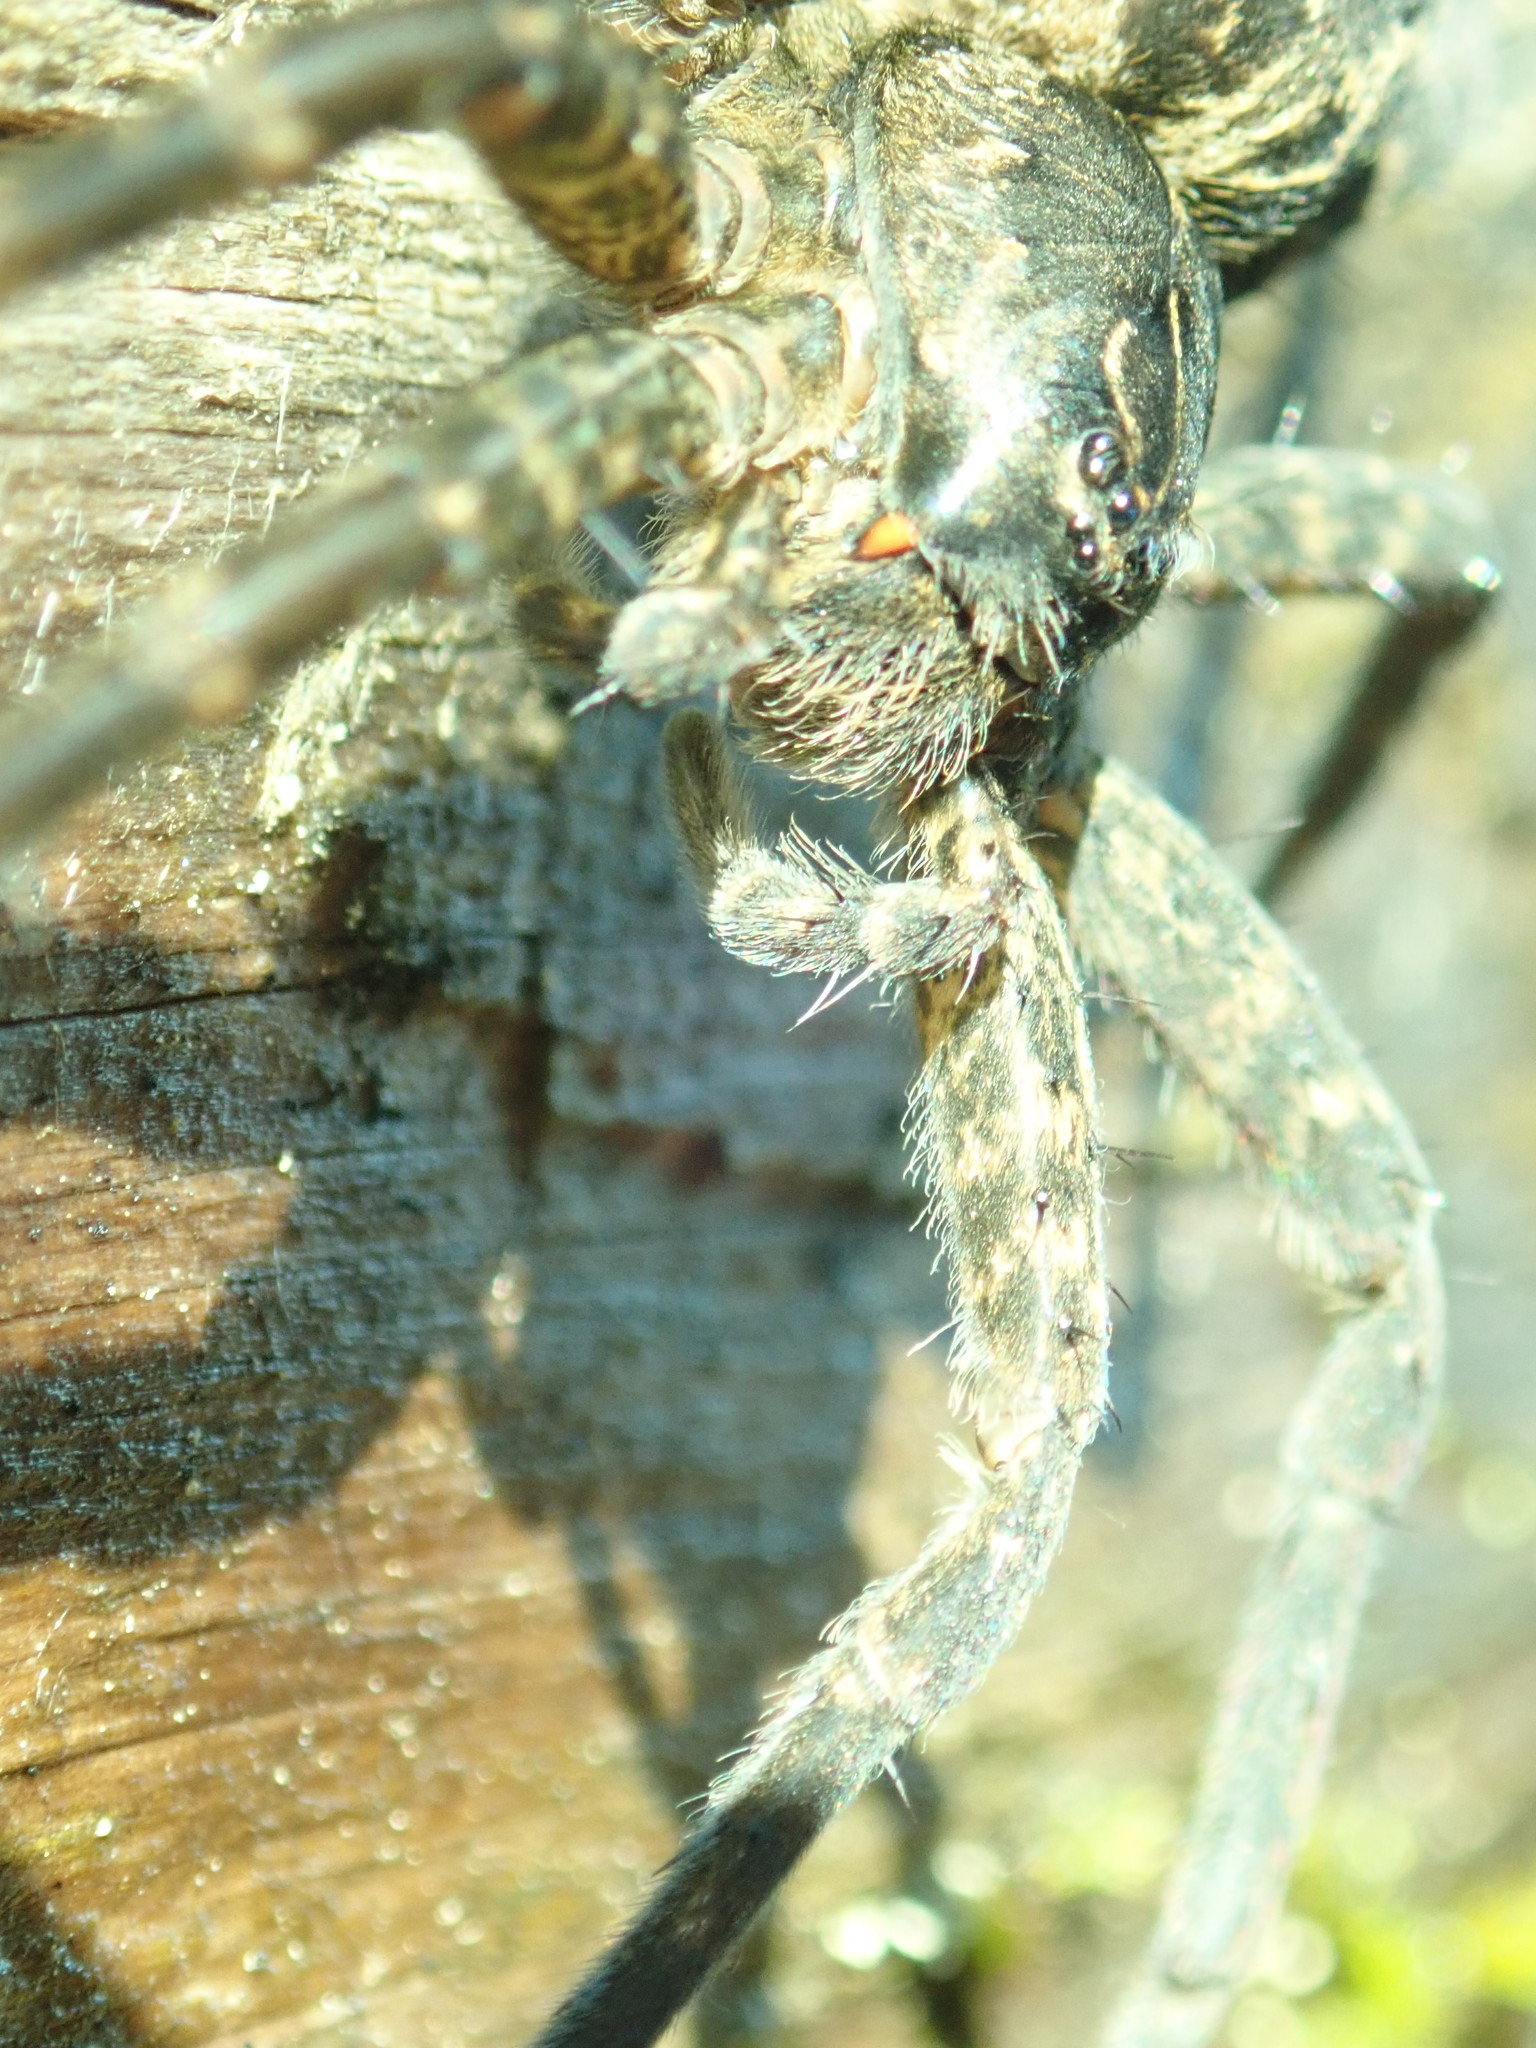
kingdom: Animalia
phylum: Arthropoda
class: Arachnida
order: Araneae
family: Pisauridae
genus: Dolomedes
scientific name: Dolomedes scriptus
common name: Striped fishing spider
